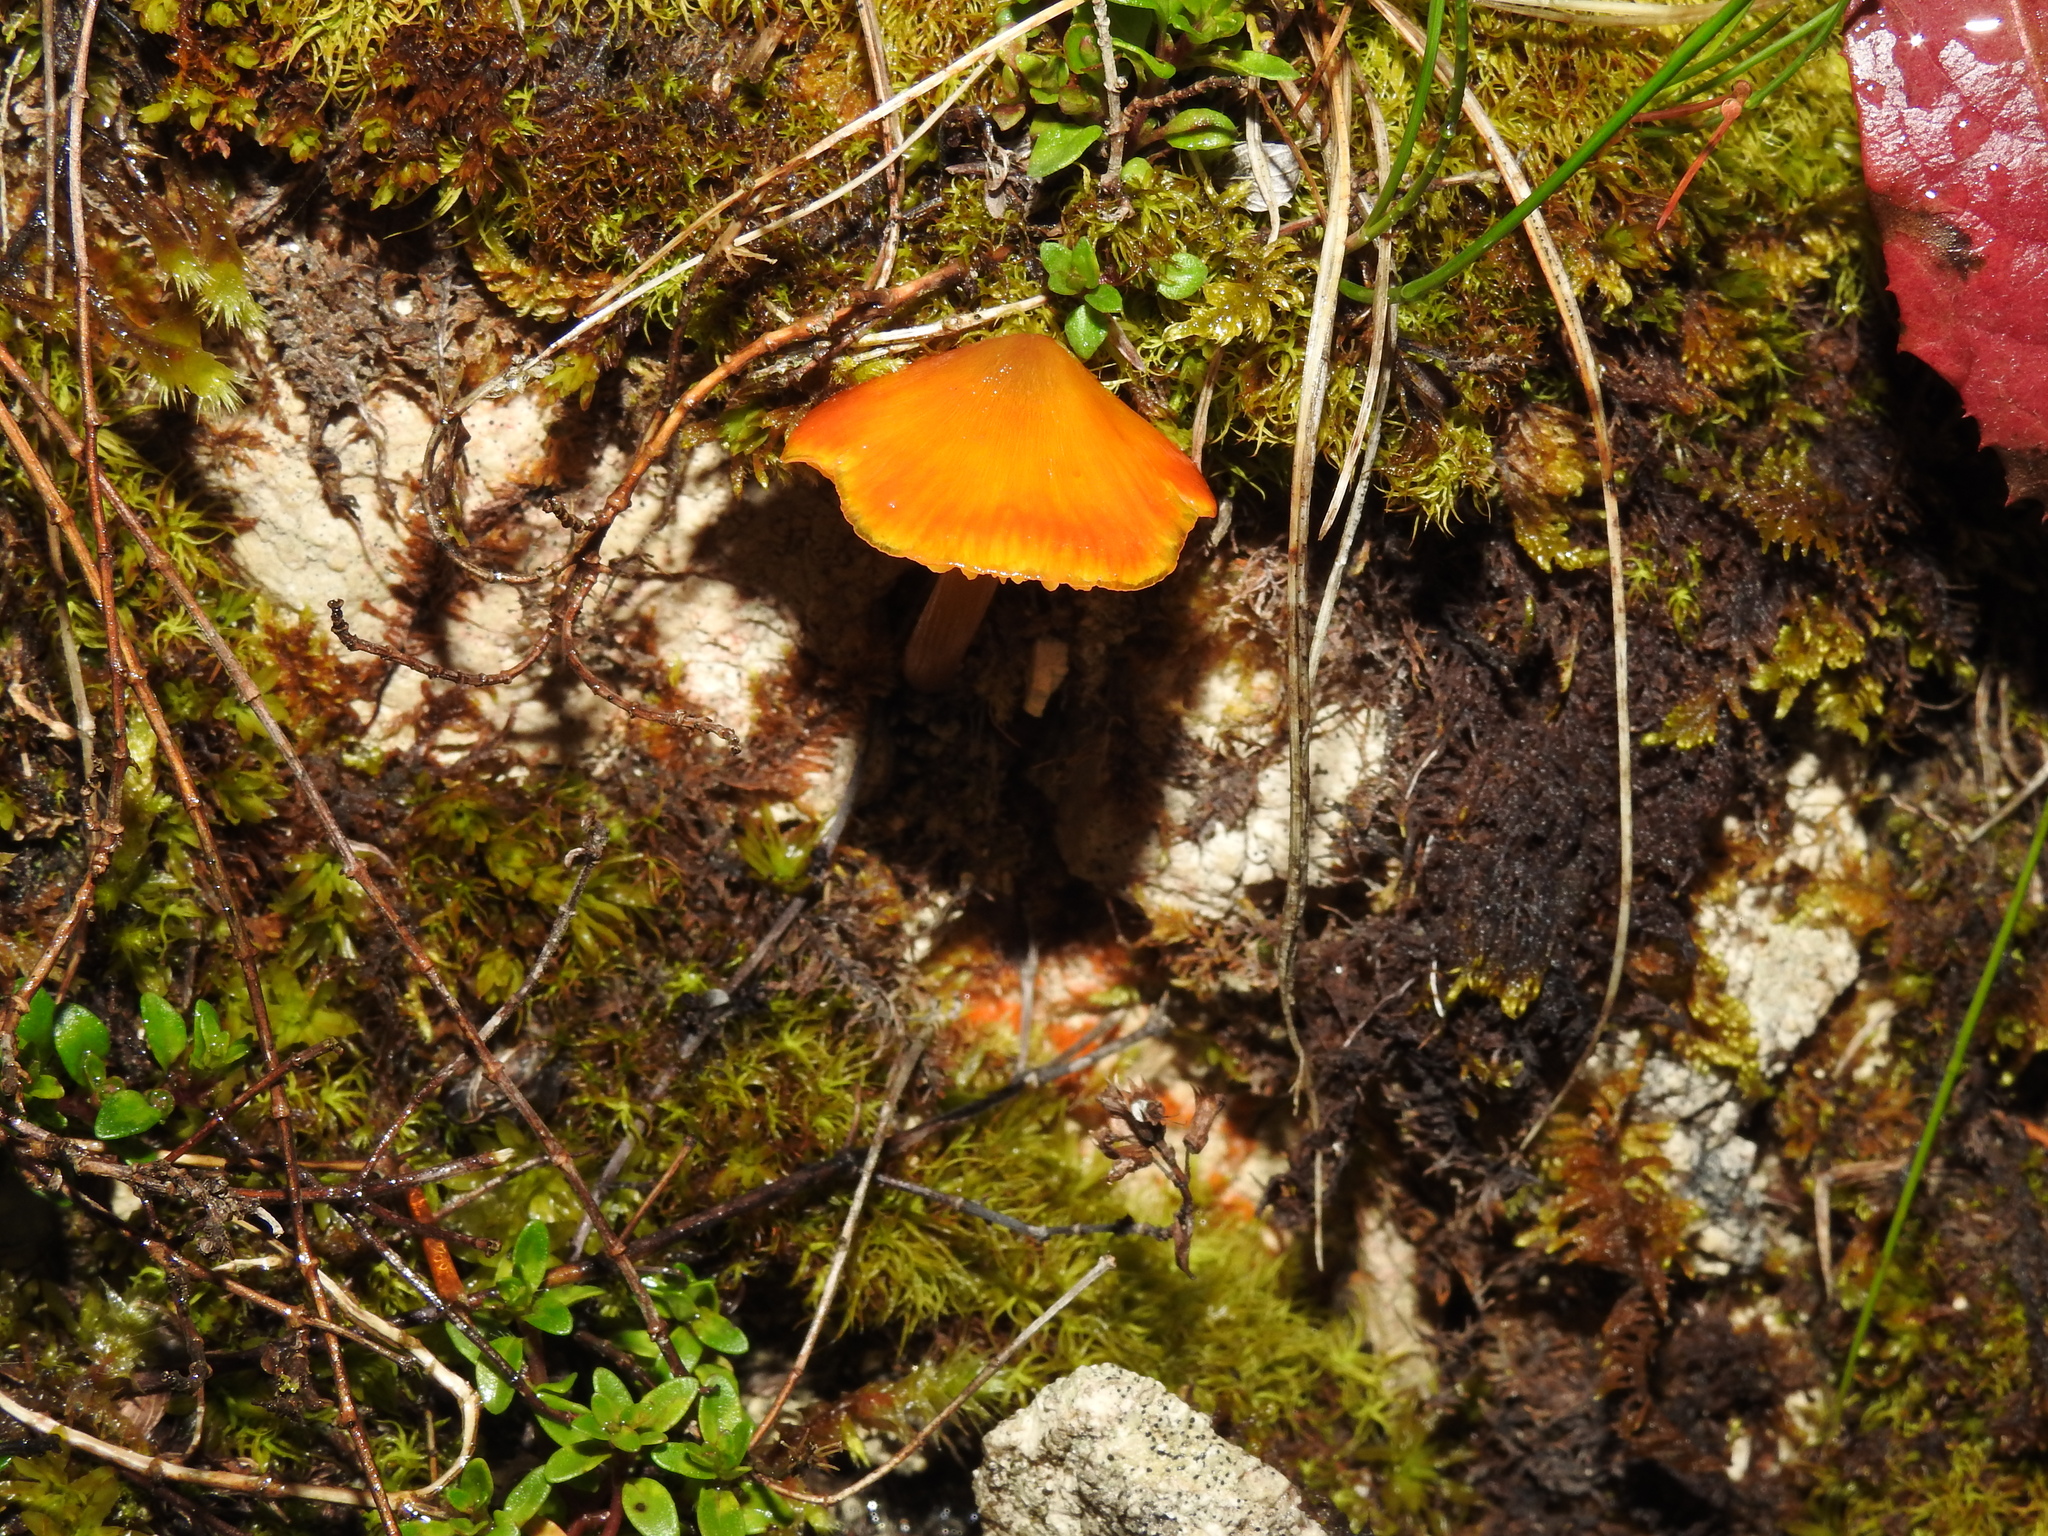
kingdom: Fungi
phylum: Basidiomycota
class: Agaricomycetes
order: Agaricales
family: Hygrophoraceae
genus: Hygrocybe
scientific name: Hygrocybe acutoconica
